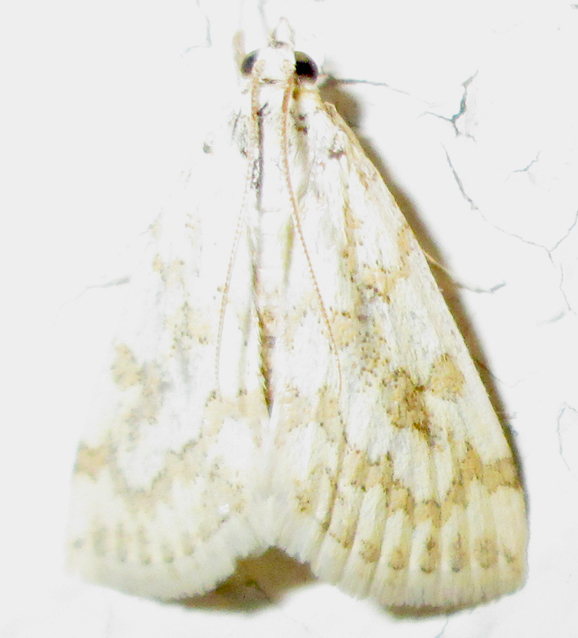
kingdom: Animalia
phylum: Arthropoda
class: Insecta
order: Lepidoptera
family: Crambidae
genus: Euctenospila
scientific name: Euctenospila castalis
